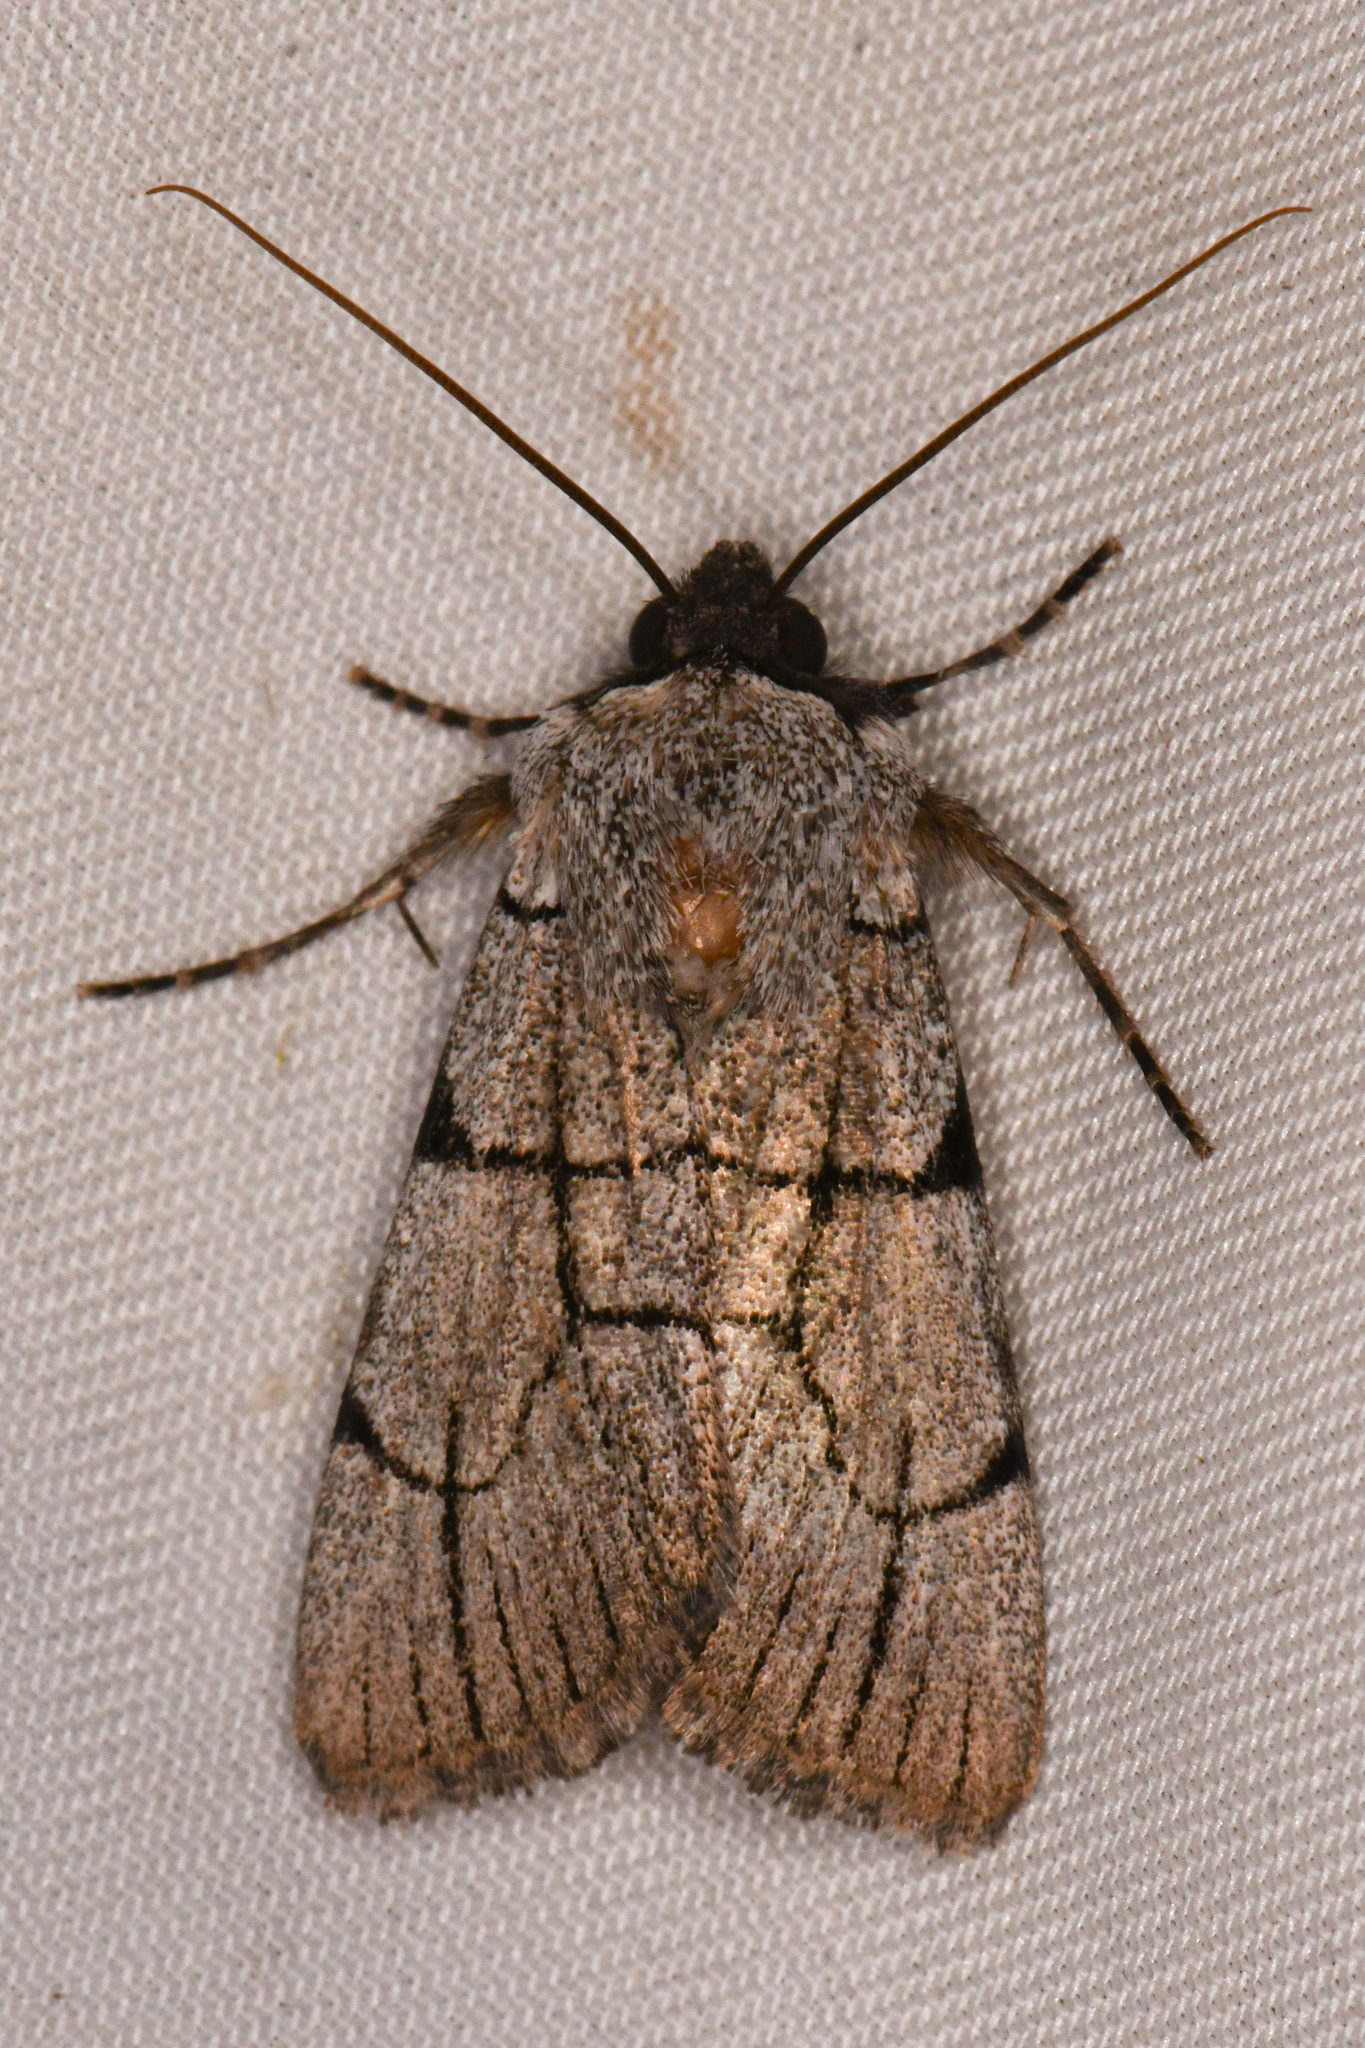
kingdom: Animalia
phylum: Arthropoda
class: Insecta
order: Lepidoptera
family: Noctuidae
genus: Sympistis
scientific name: Sympistis ragani
